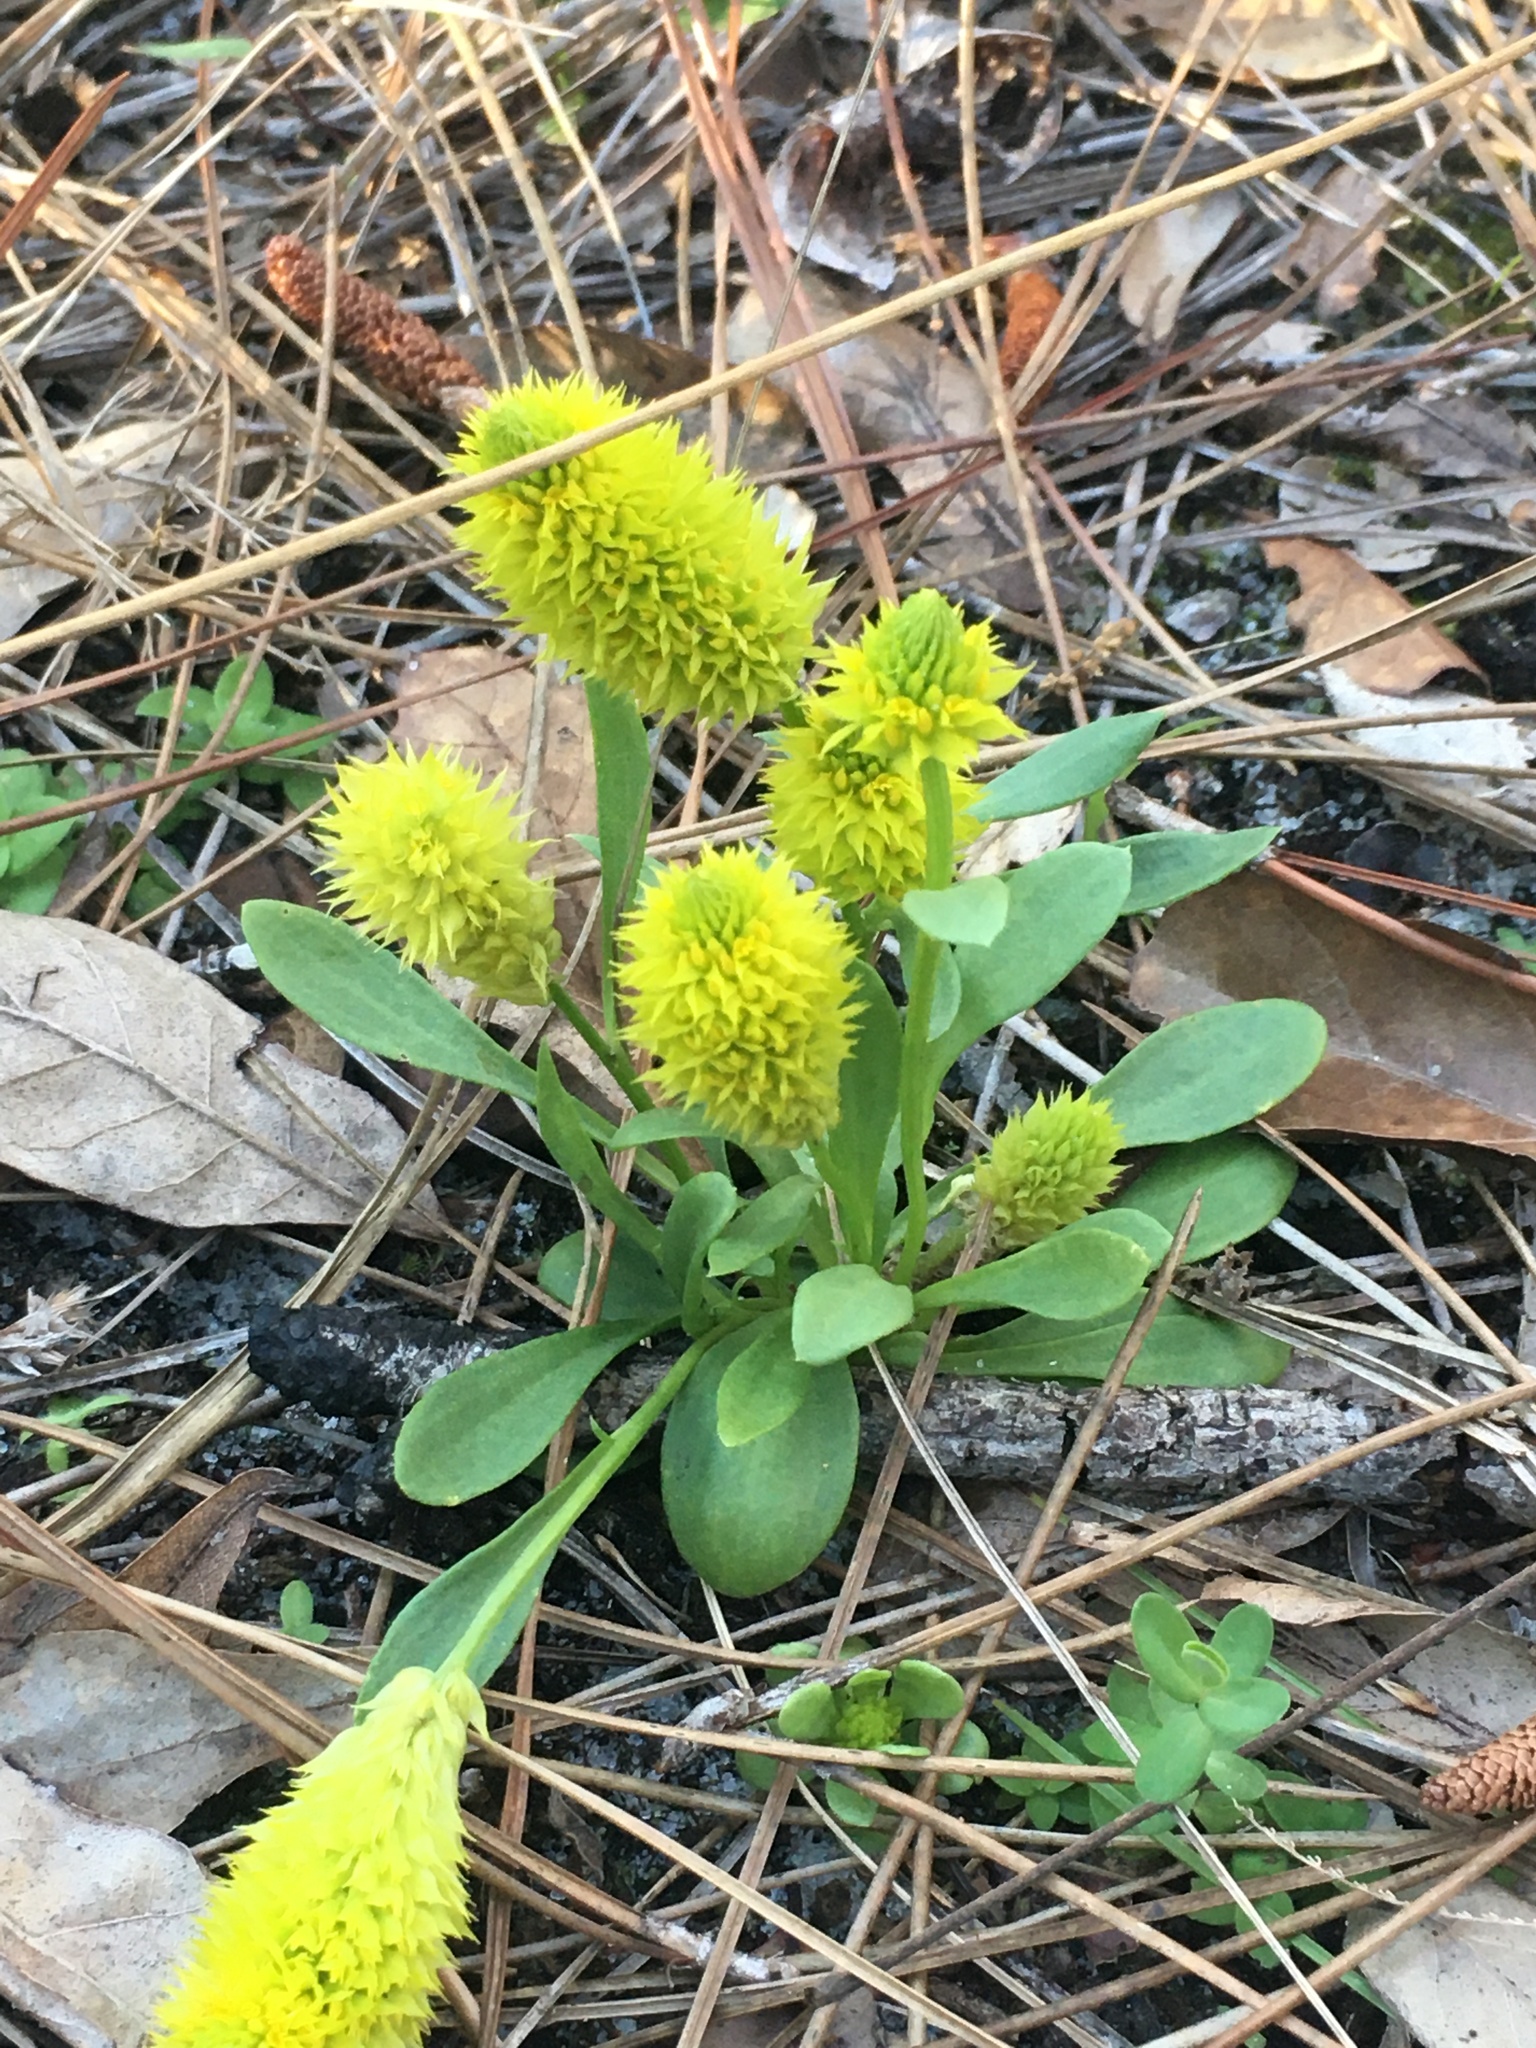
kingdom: Plantae
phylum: Tracheophyta
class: Magnoliopsida
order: Fabales
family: Polygalaceae
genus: Polygala
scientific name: Polygala nana
